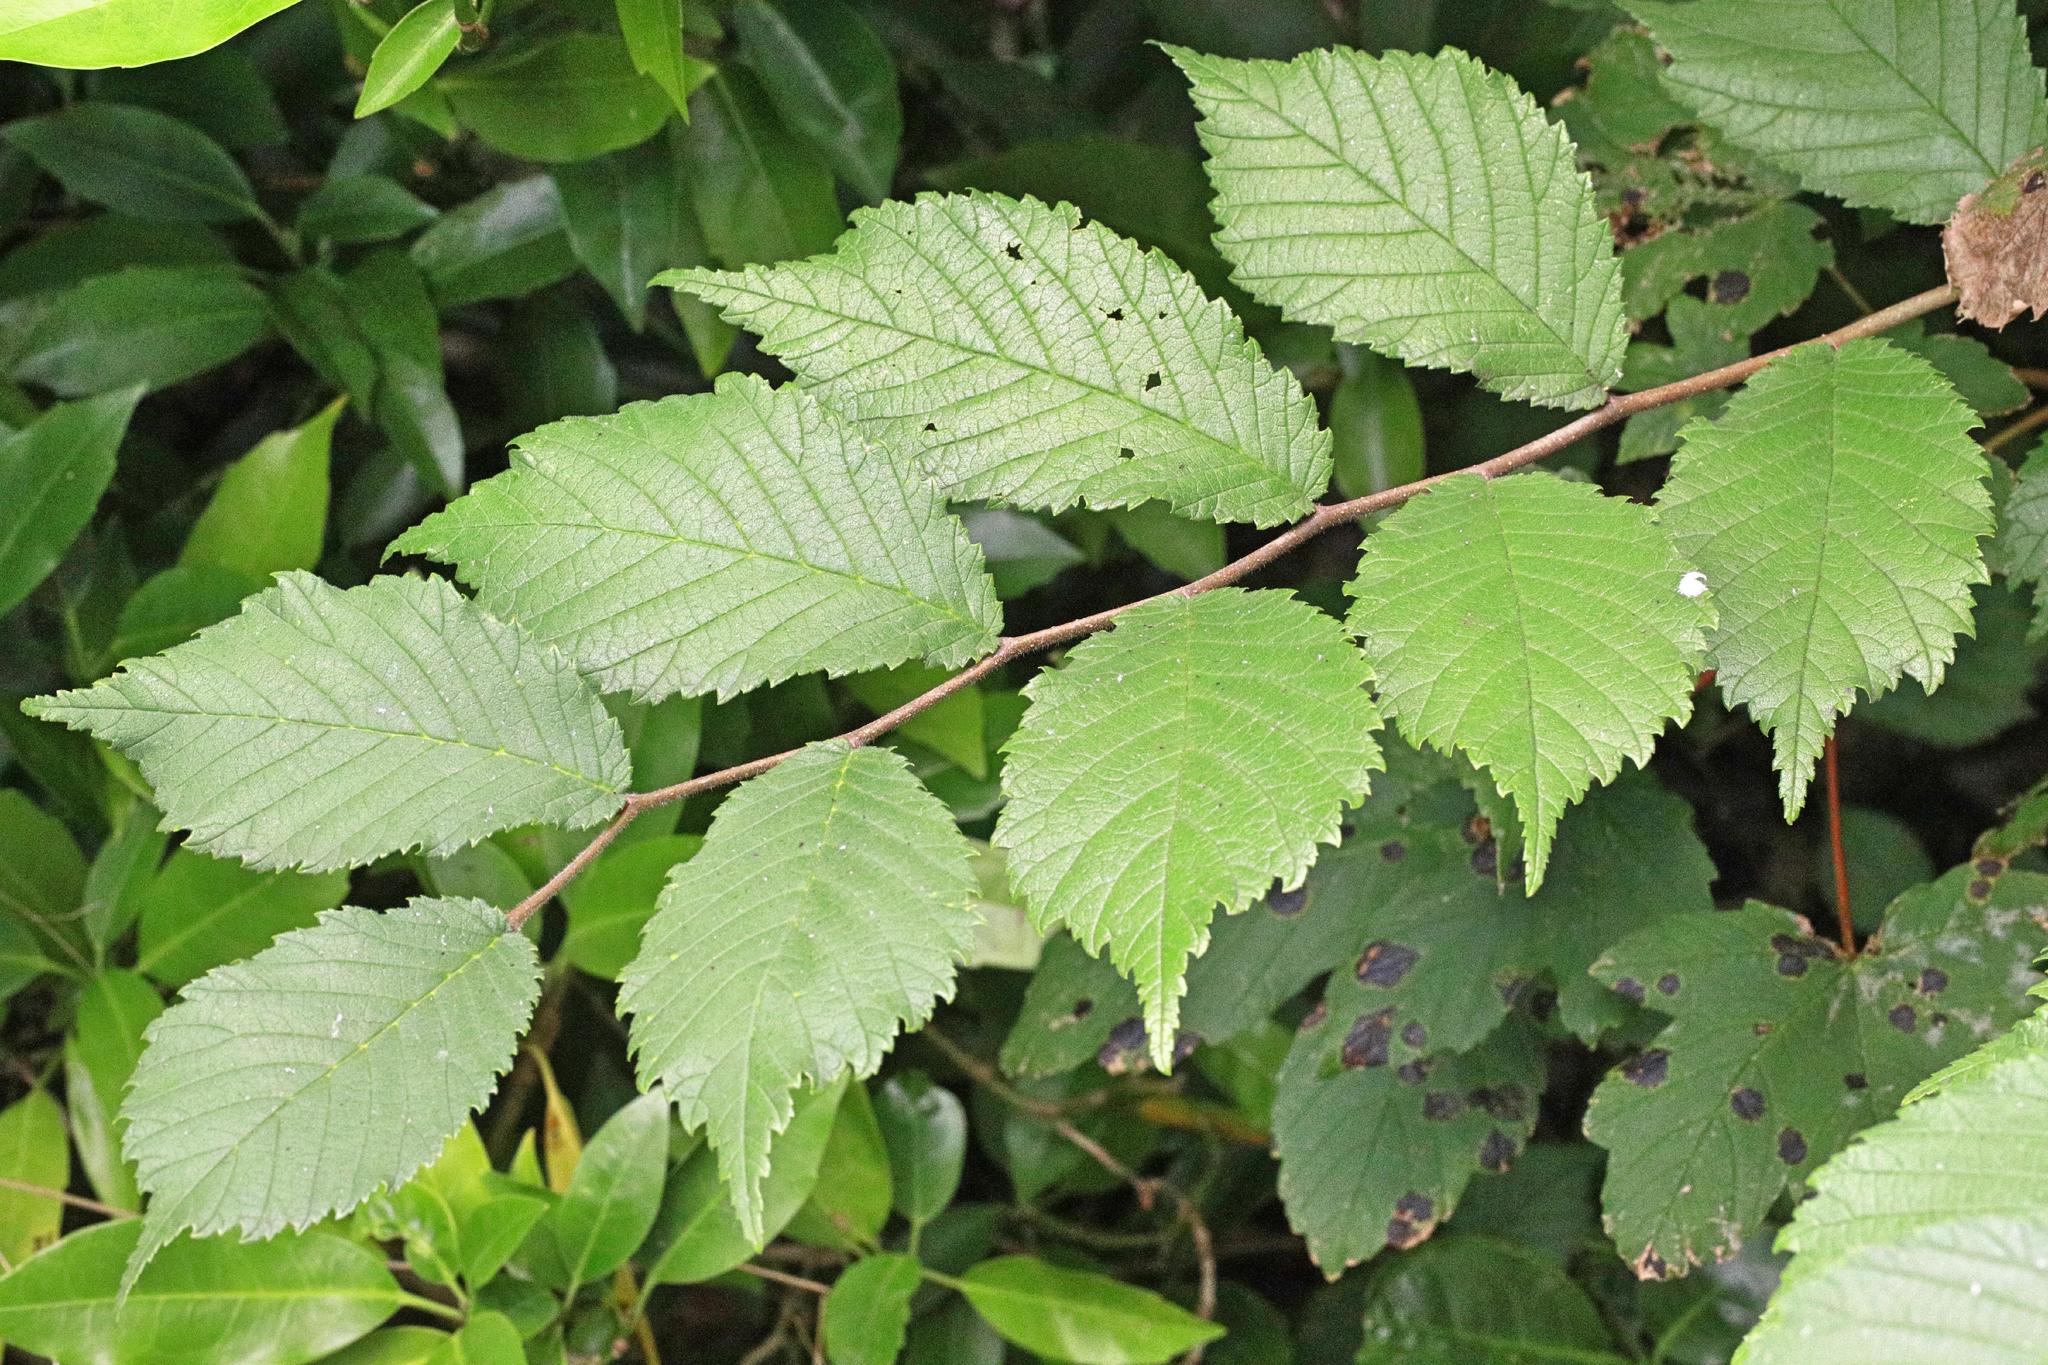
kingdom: Plantae
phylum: Tracheophyta
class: Magnoliopsida
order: Rosales
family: Ulmaceae
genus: Ulmus
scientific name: Ulmus glabra
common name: Wych elm
